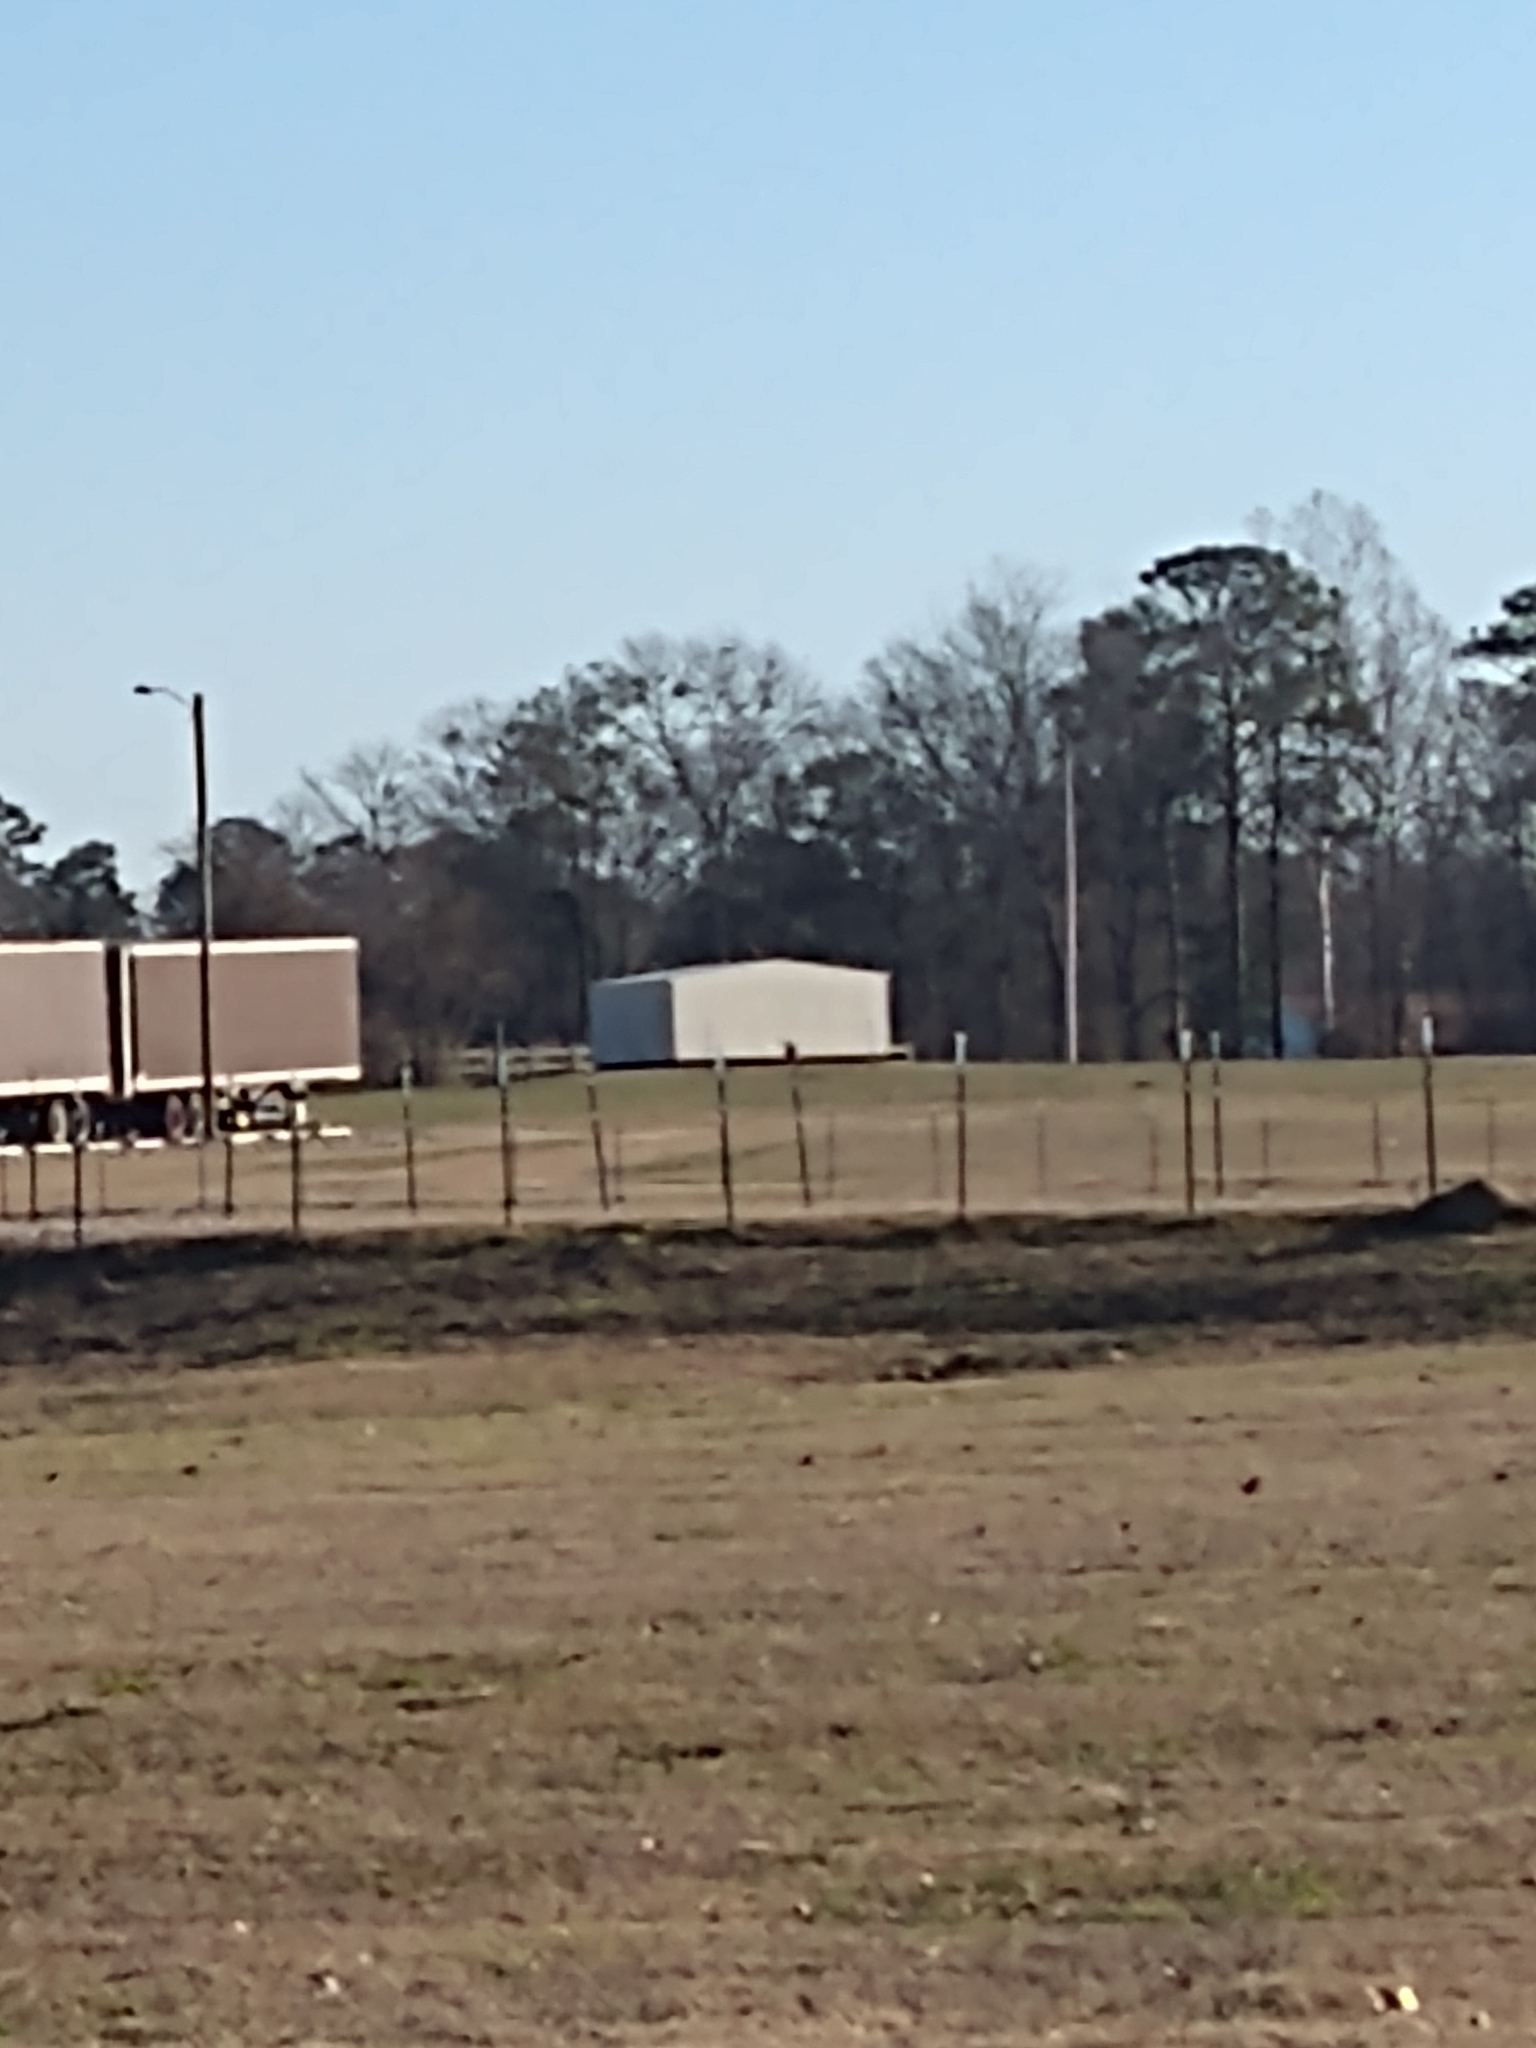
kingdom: Animalia
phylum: Chordata
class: Aves
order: Falconiformes
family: Falconidae
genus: Falco
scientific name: Falco sparverius
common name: American kestrel
